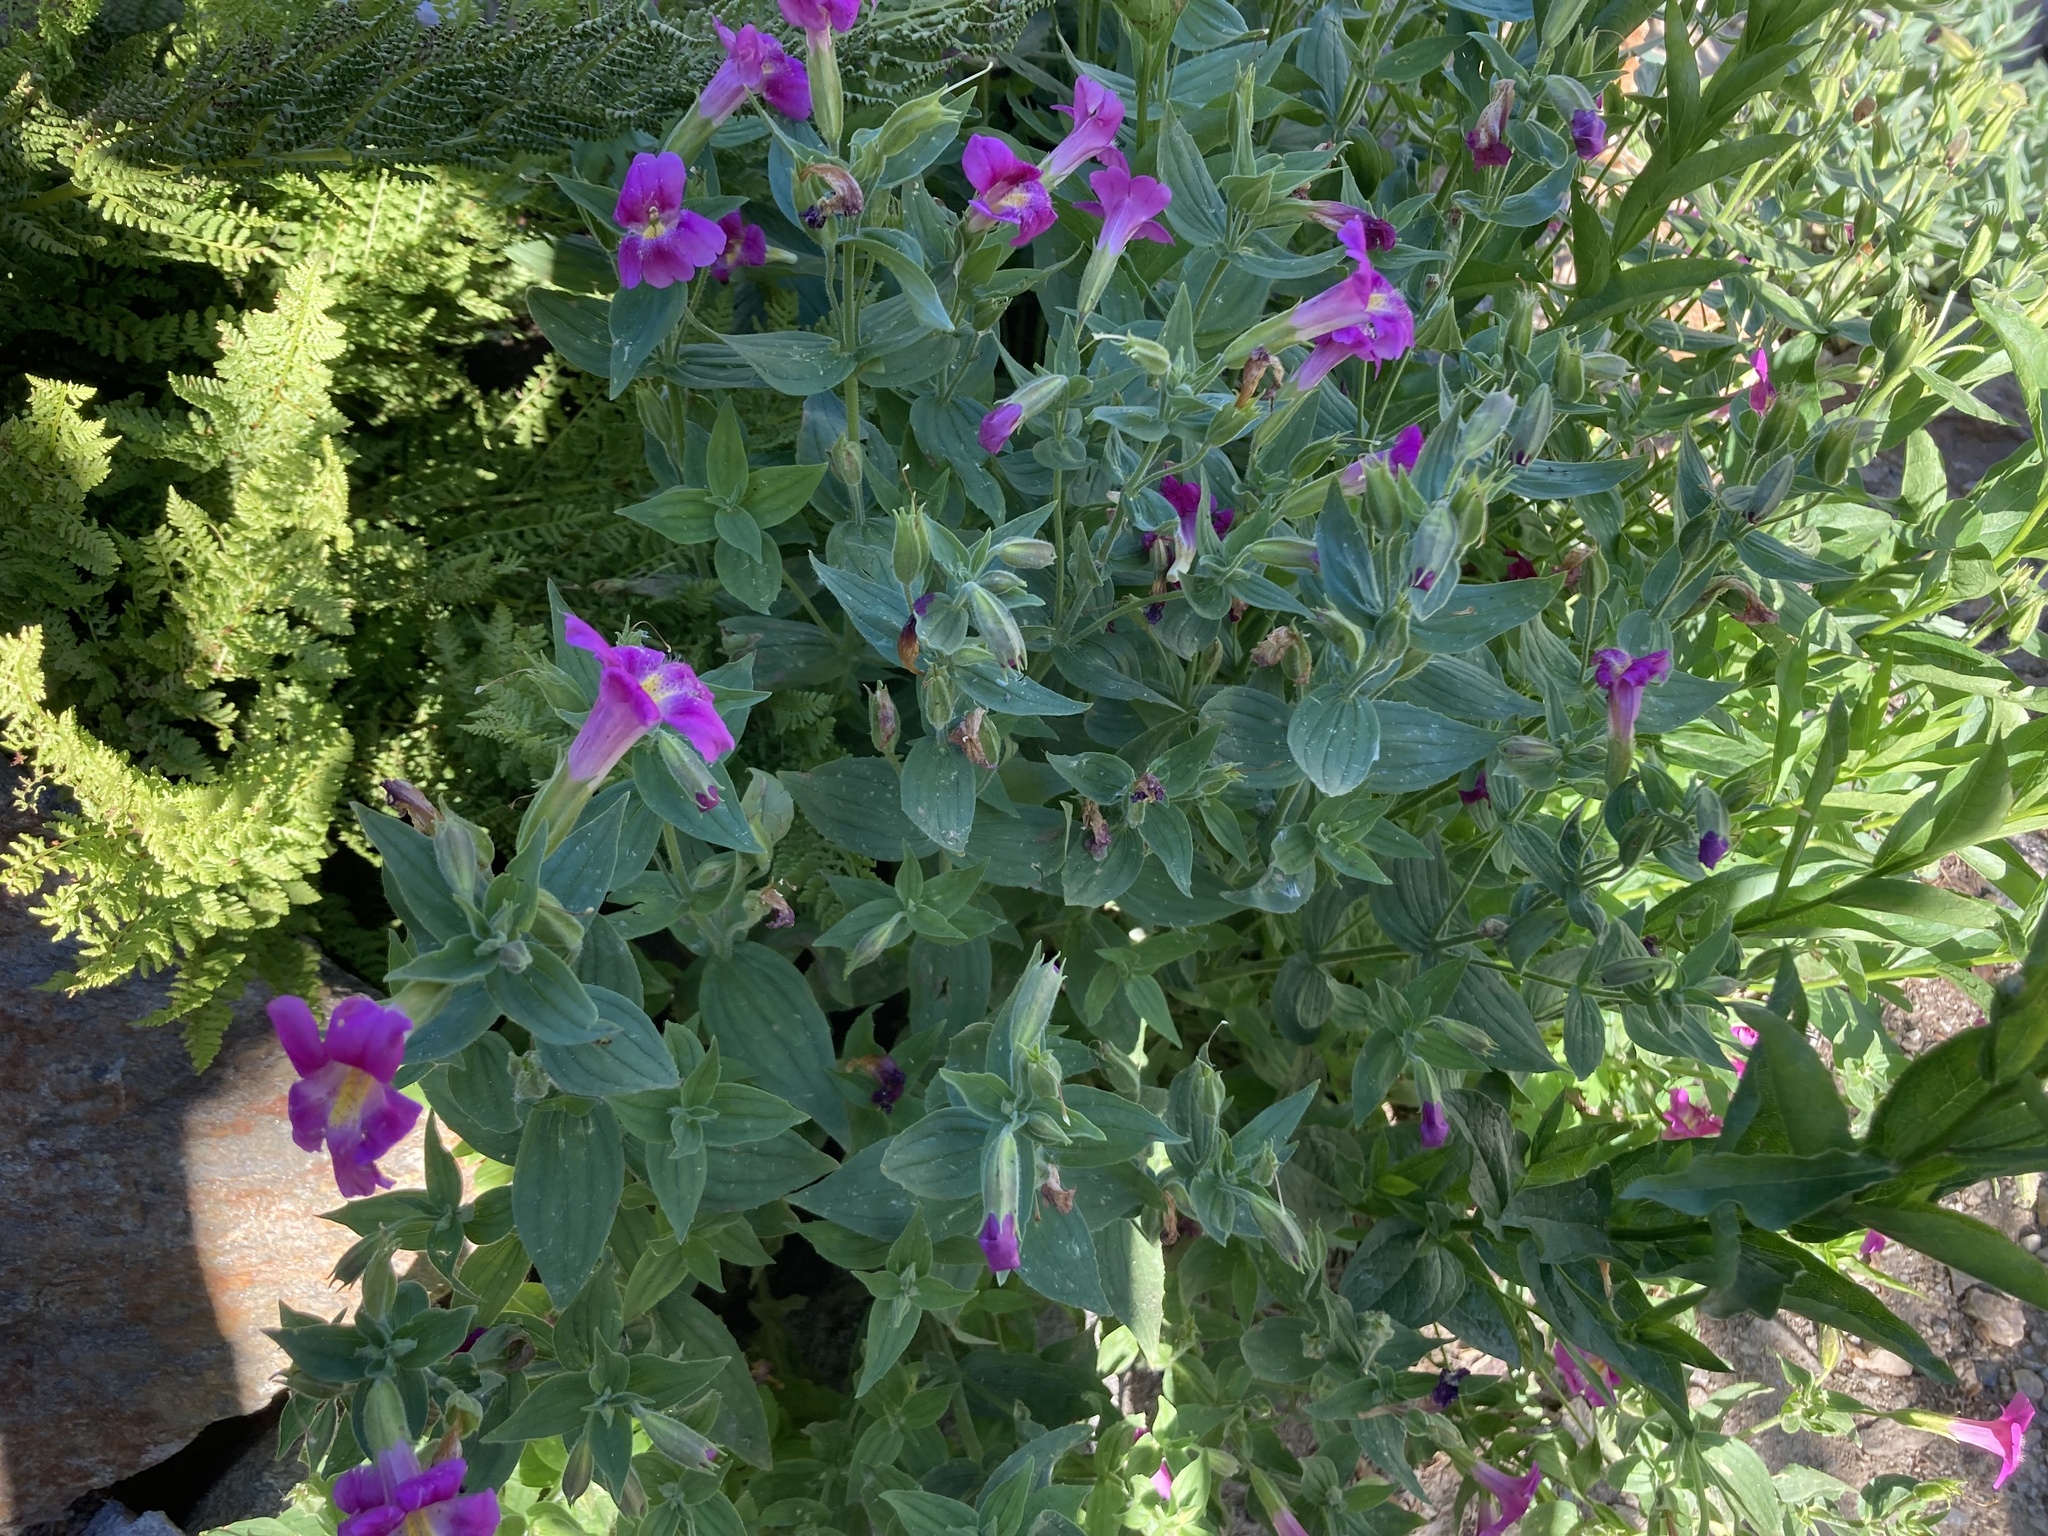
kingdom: Plantae
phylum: Tracheophyta
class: Magnoliopsida
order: Lamiales
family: Phrymaceae
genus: Erythranthe
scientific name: Erythranthe lewisii
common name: Lewis's monkey-flower
